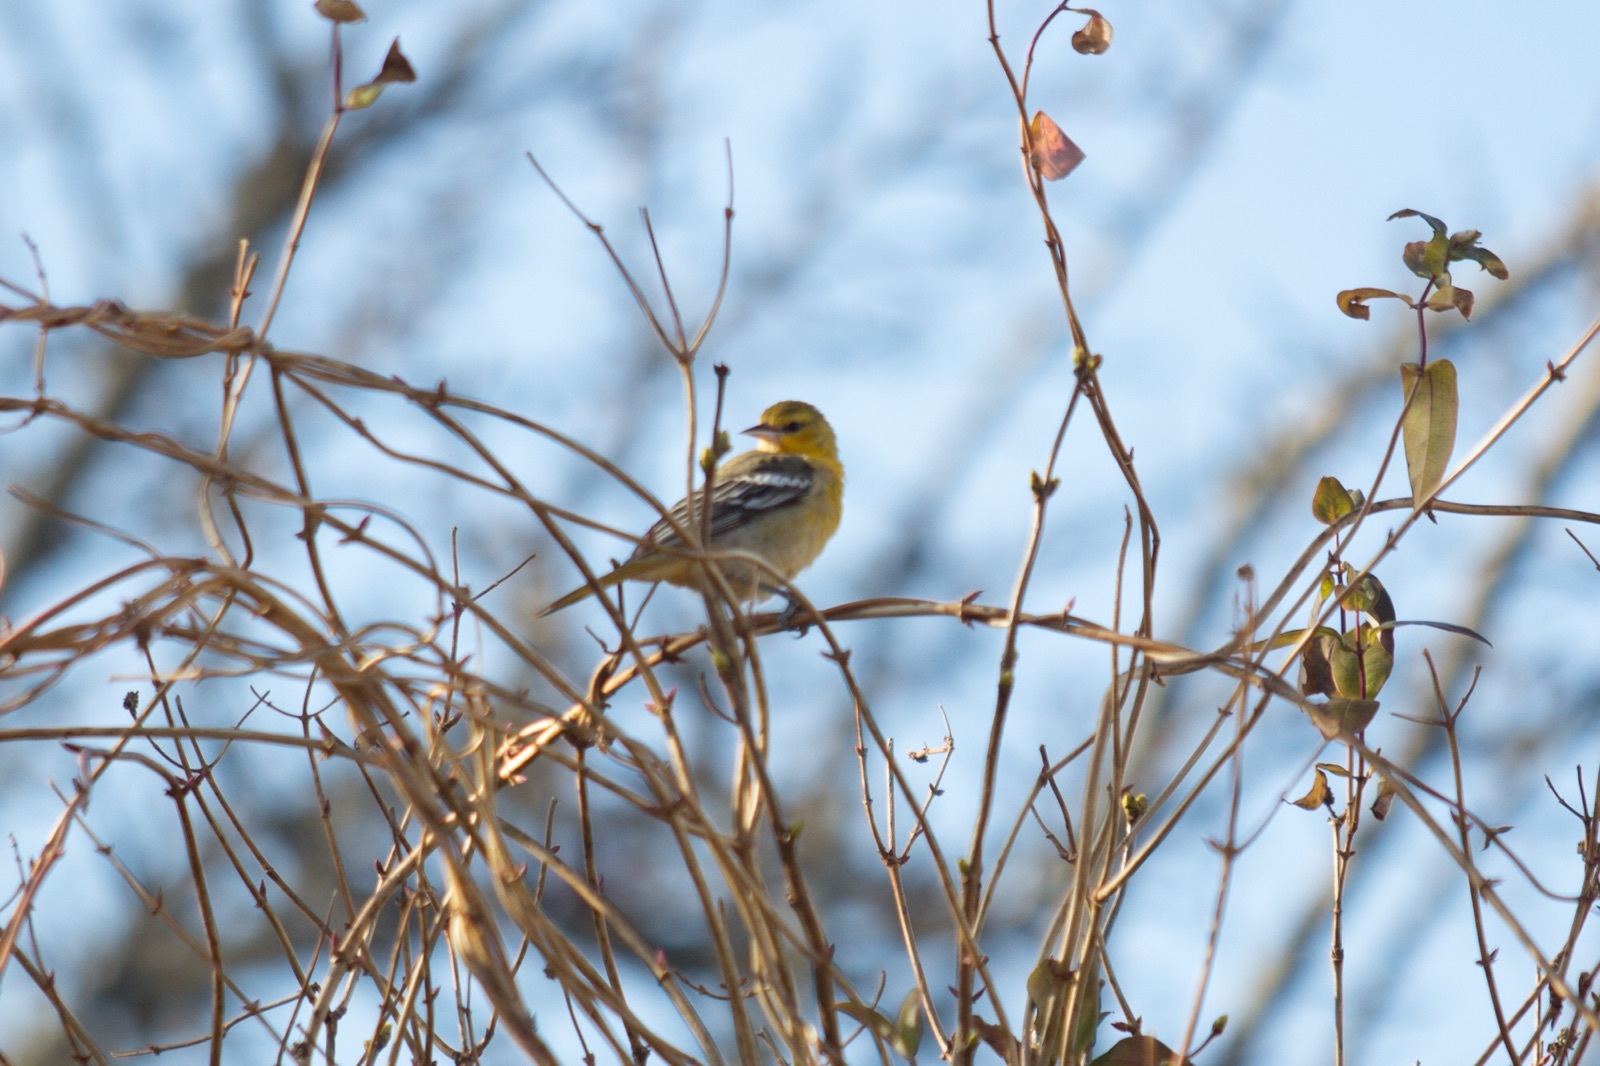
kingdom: Animalia
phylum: Chordata
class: Aves
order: Passeriformes
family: Icteridae
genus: Icterus
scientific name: Icterus bullockii
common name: Bullock's oriole
